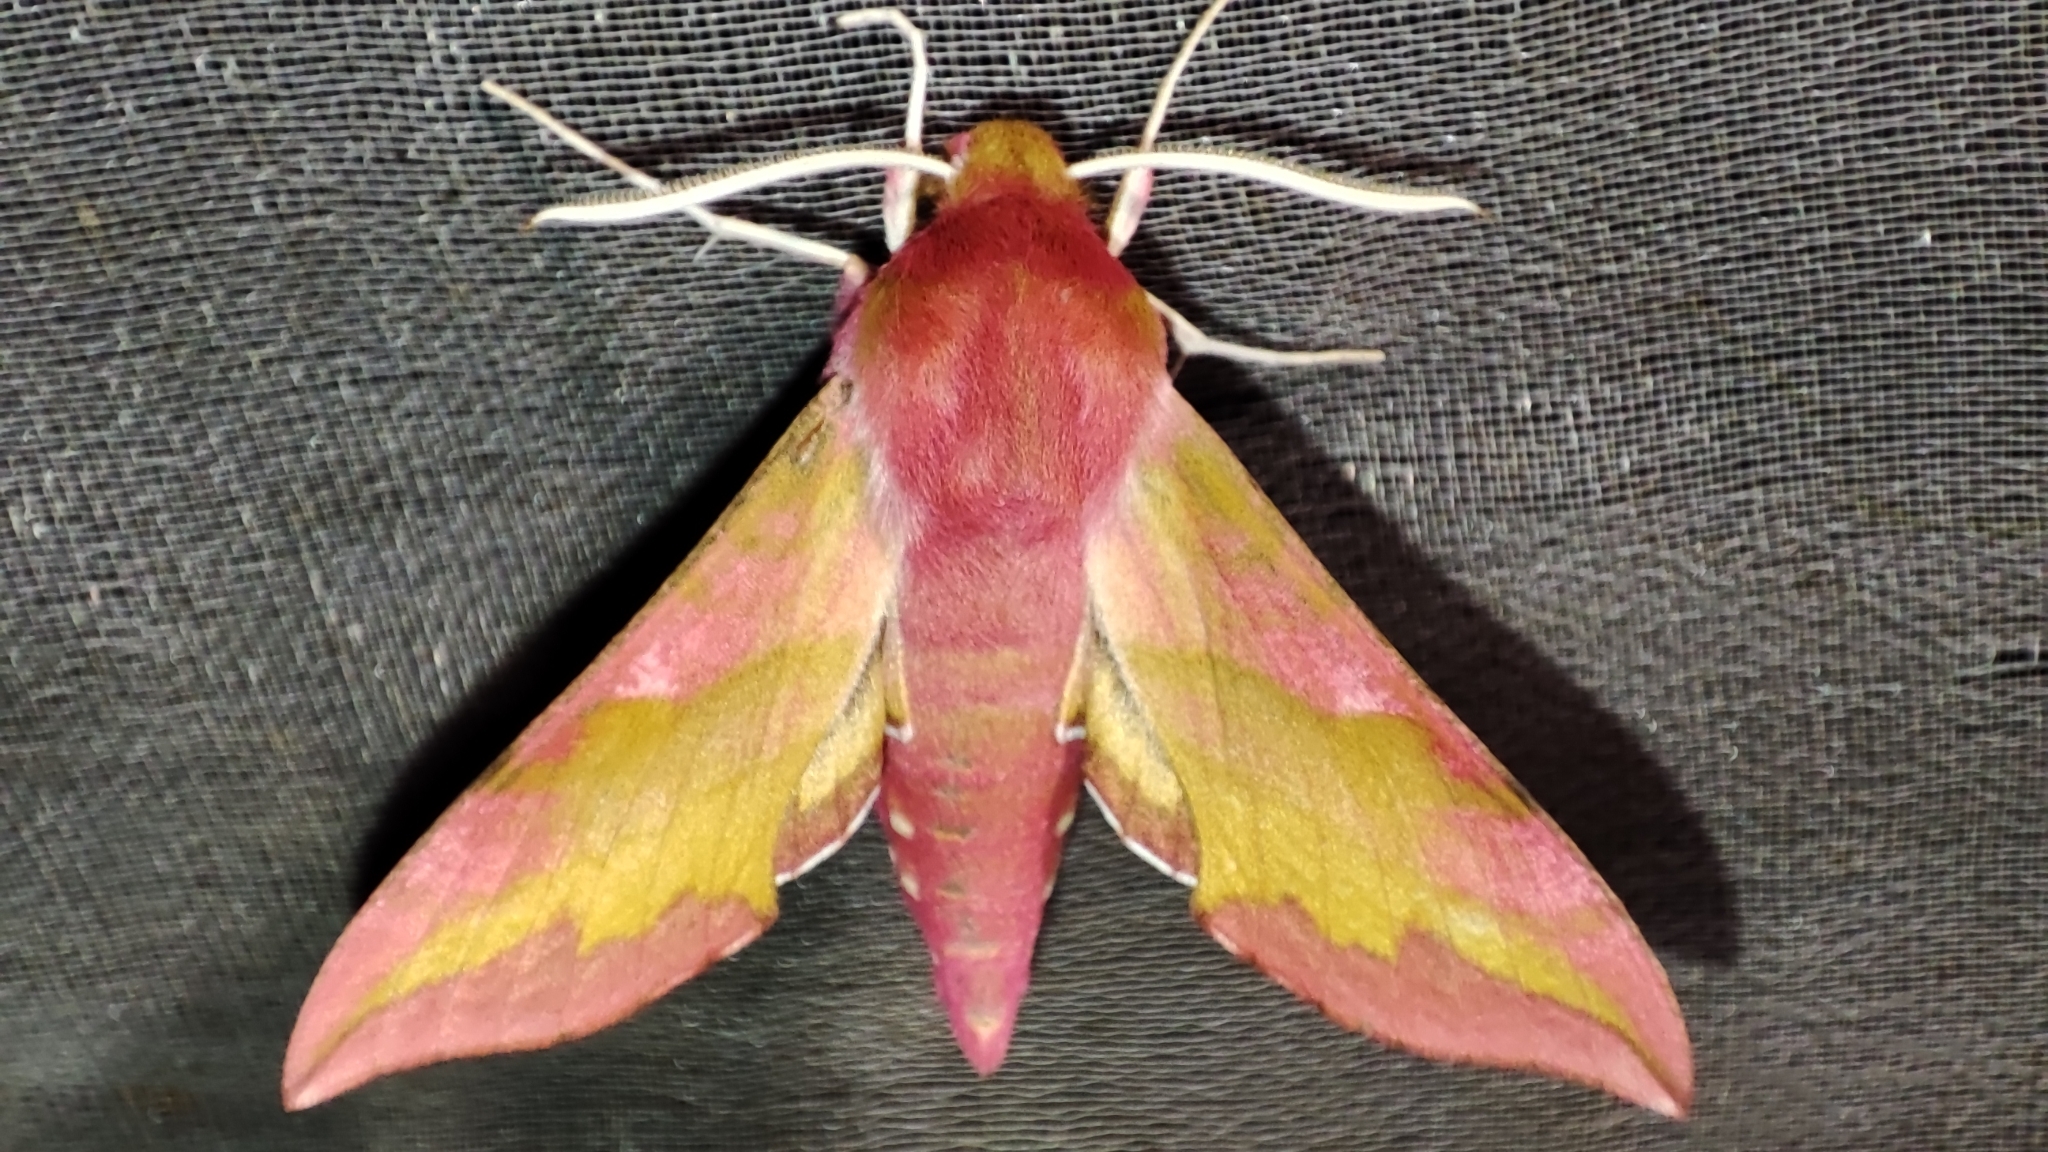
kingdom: Animalia
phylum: Arthropoda
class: Insecta
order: Lepidoptera
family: Sphingidae
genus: Deilephila
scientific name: Deilephila porcellus
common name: Small elephant hawk-moth
